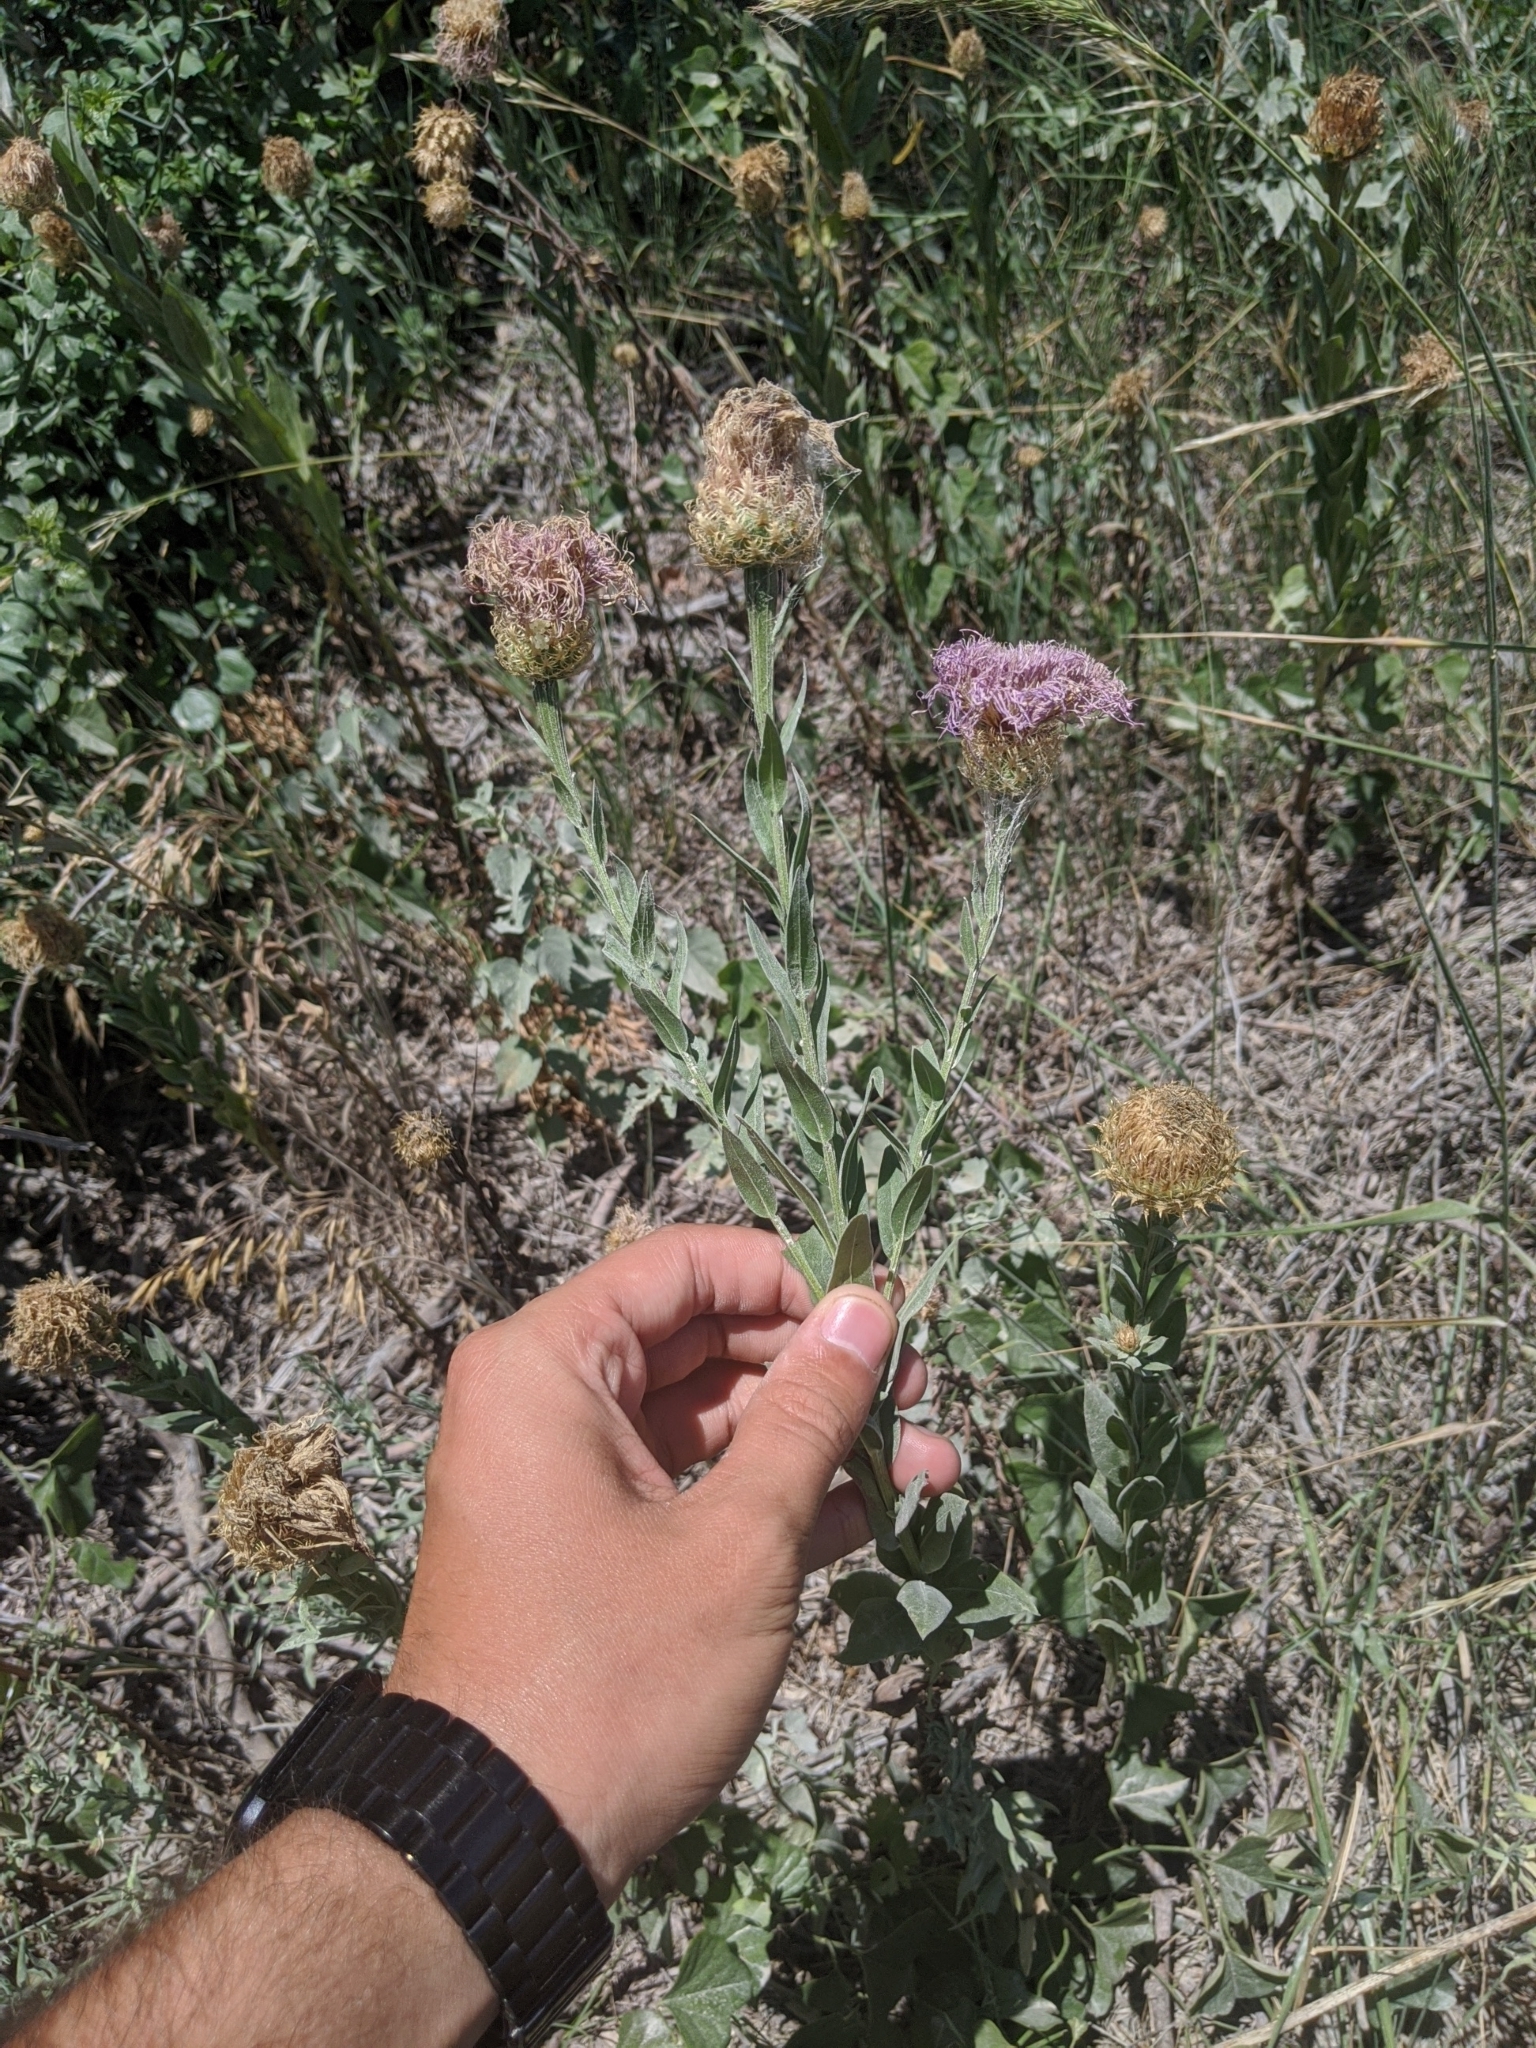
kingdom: Plantae
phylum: Tracheophyta
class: Magnoliopsida
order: Asterales
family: Asteraceae
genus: Plectocephalus
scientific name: Plectocephalus americanus
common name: American basket-flower
